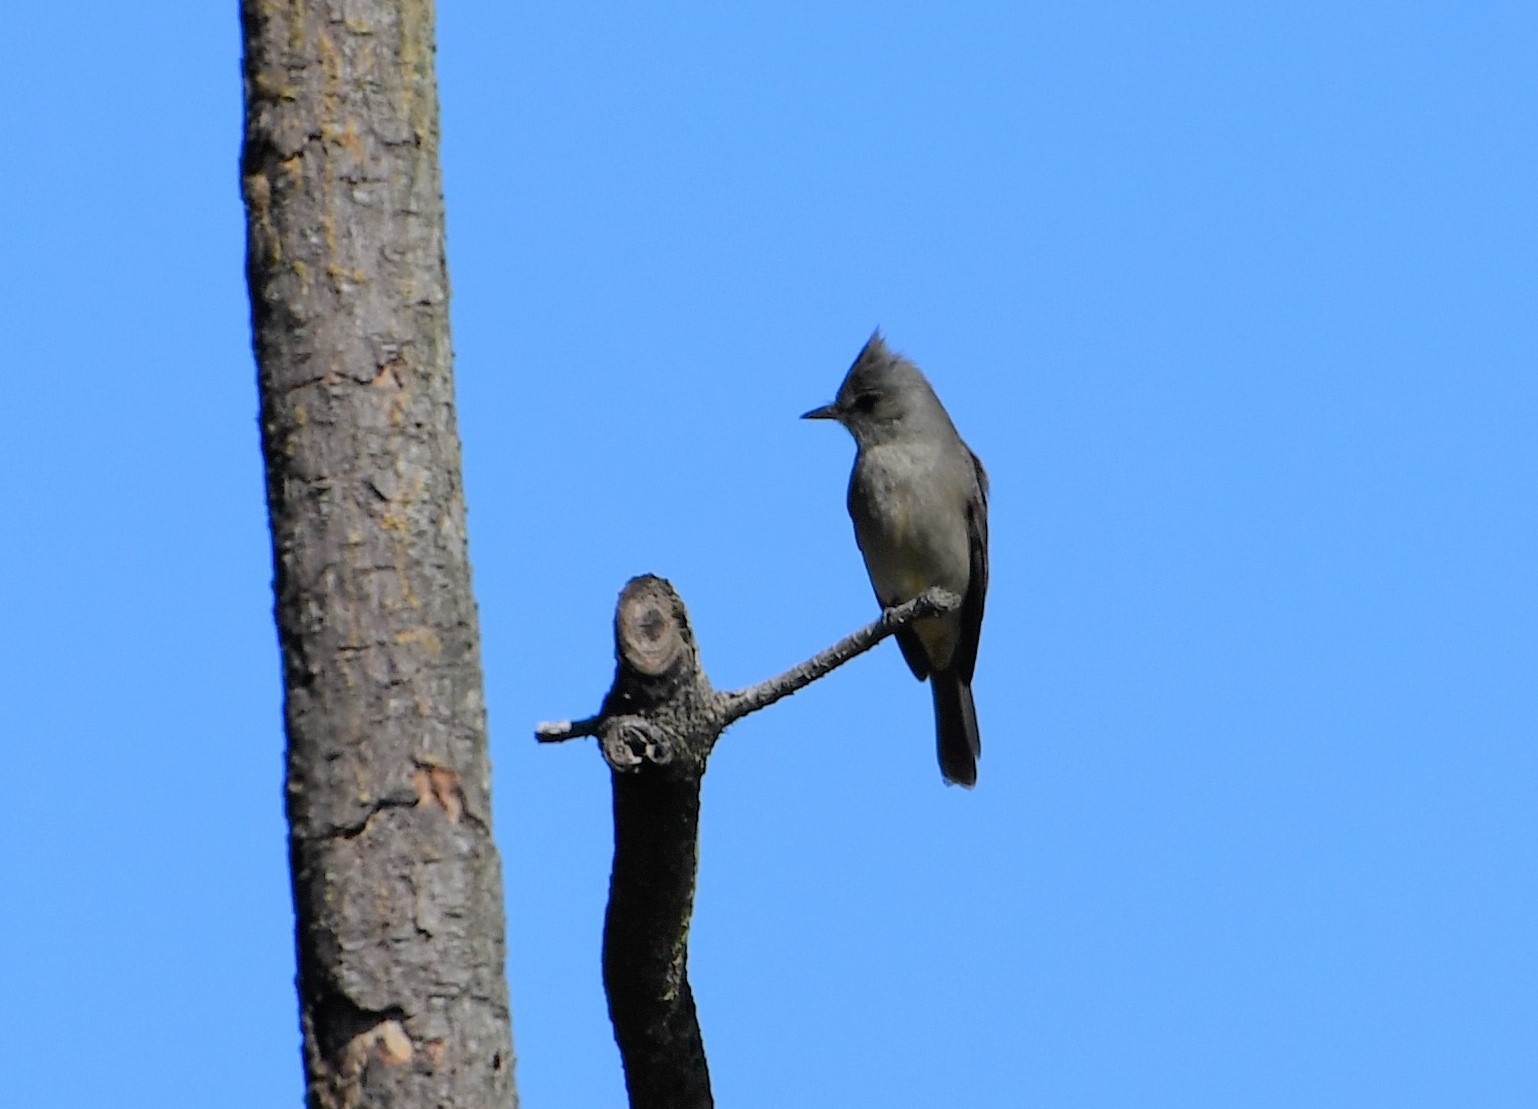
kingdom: Animalia
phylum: Chordata
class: Aves
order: Passeriformes
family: Tyrannidae
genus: Contopus
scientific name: Contopus pertinax
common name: Greater pewee
